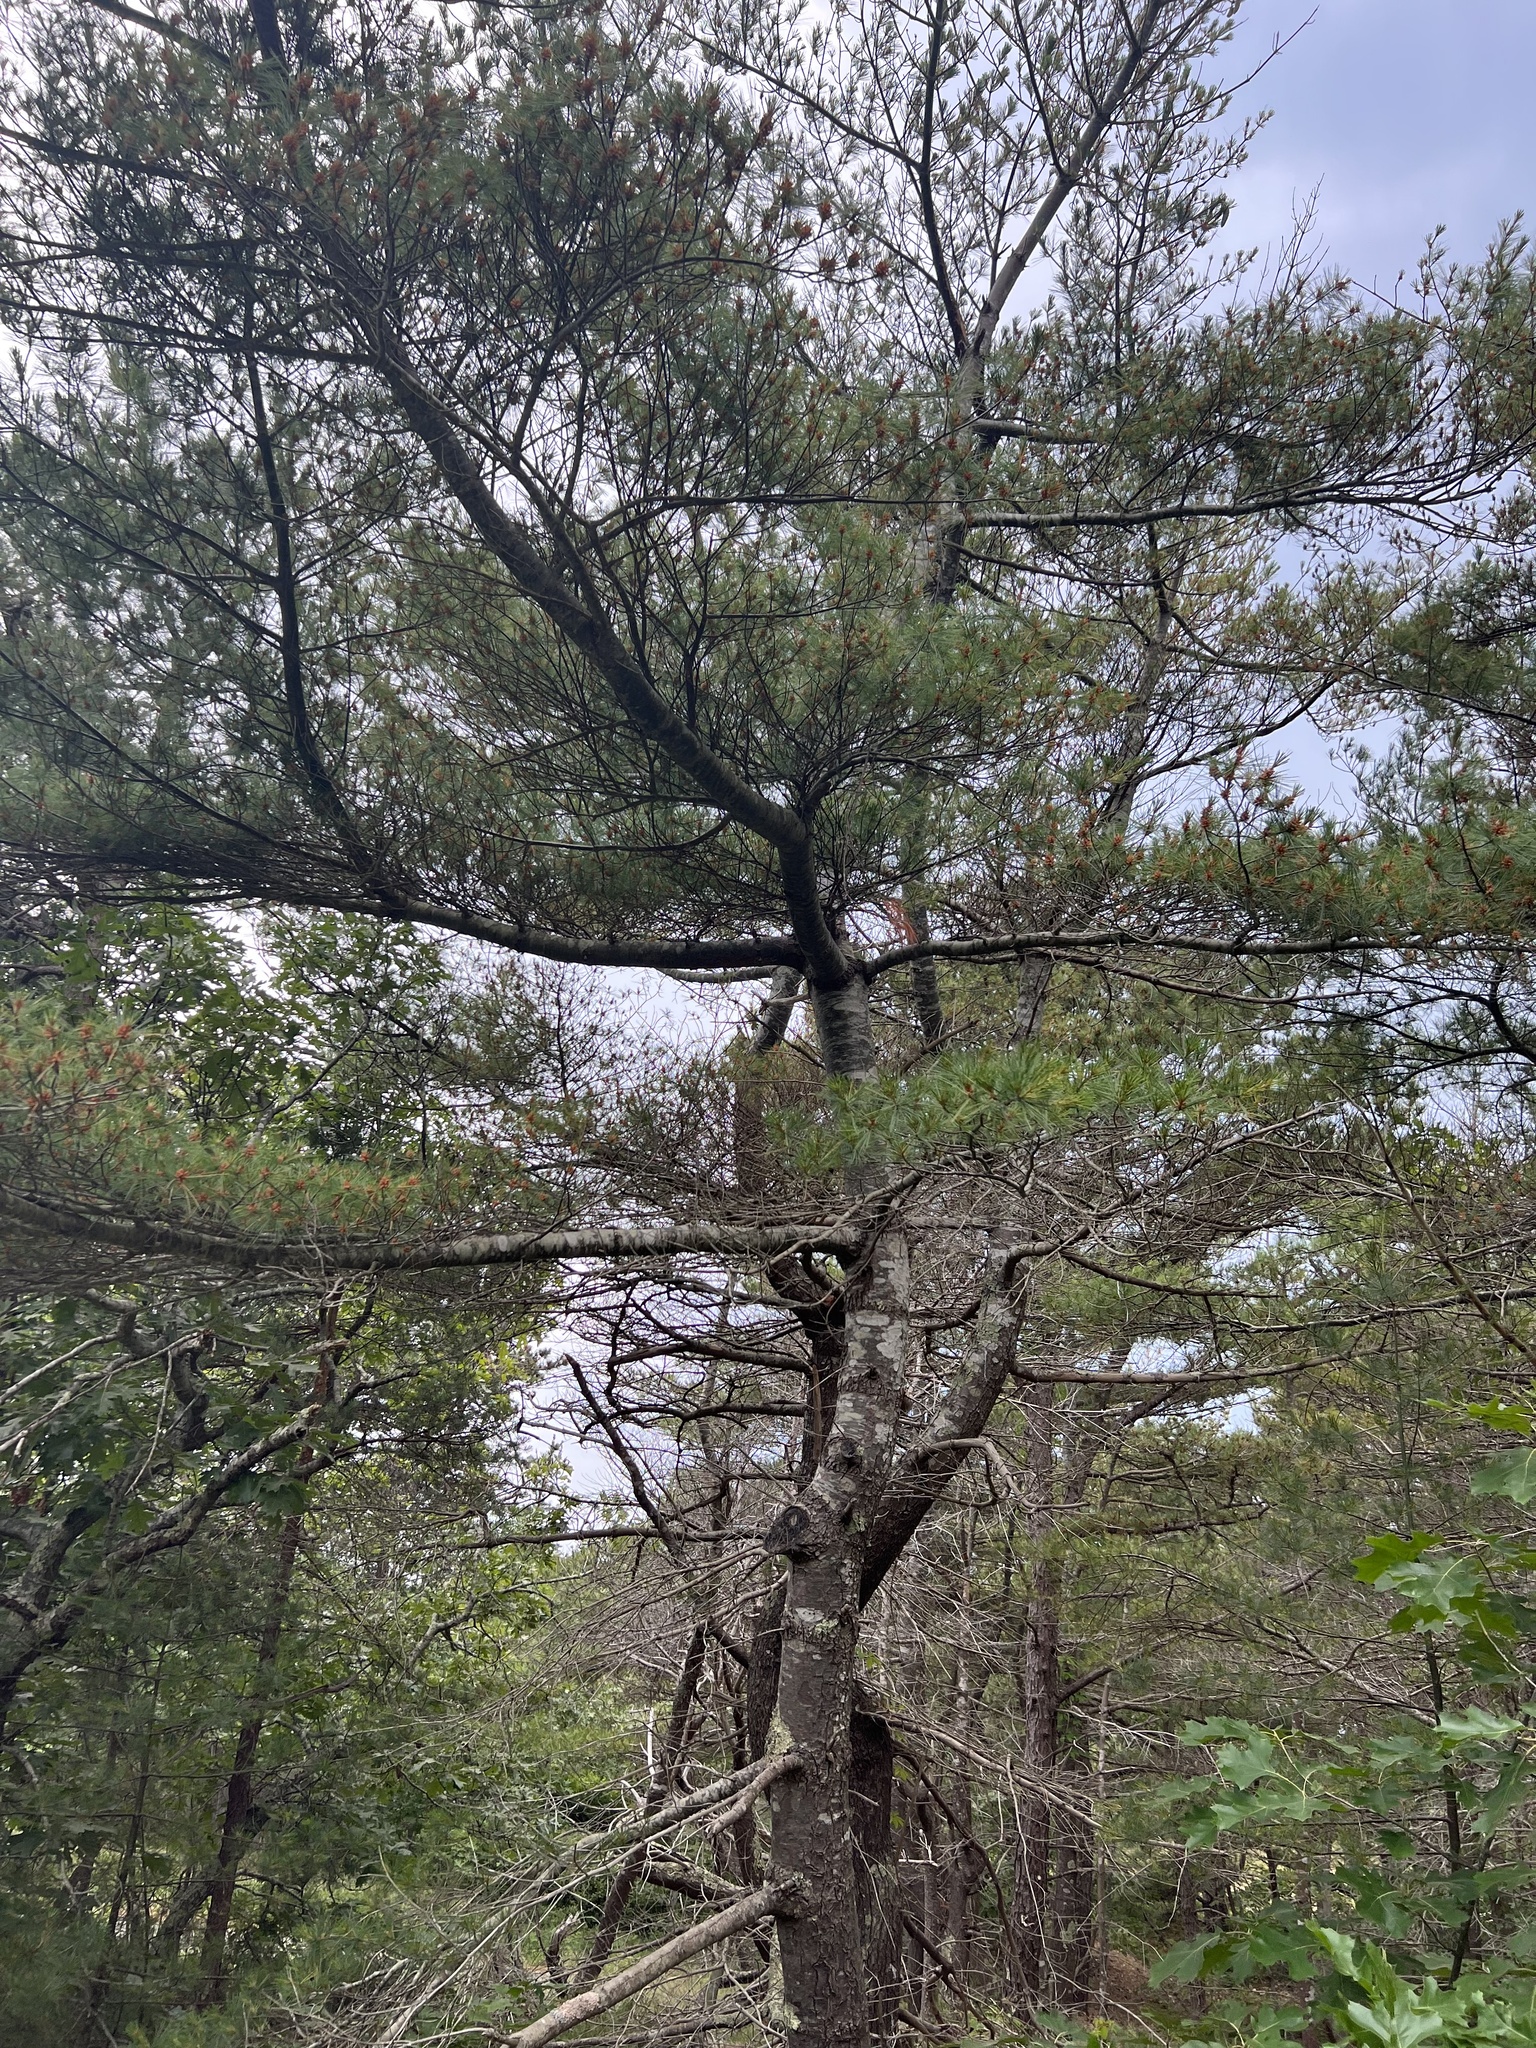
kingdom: Plantae
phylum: Tracheophyta
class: Pinopsida
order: Pinales
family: Pinaceae
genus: Pinus
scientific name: Pinus strobus
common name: Weymouth pine
